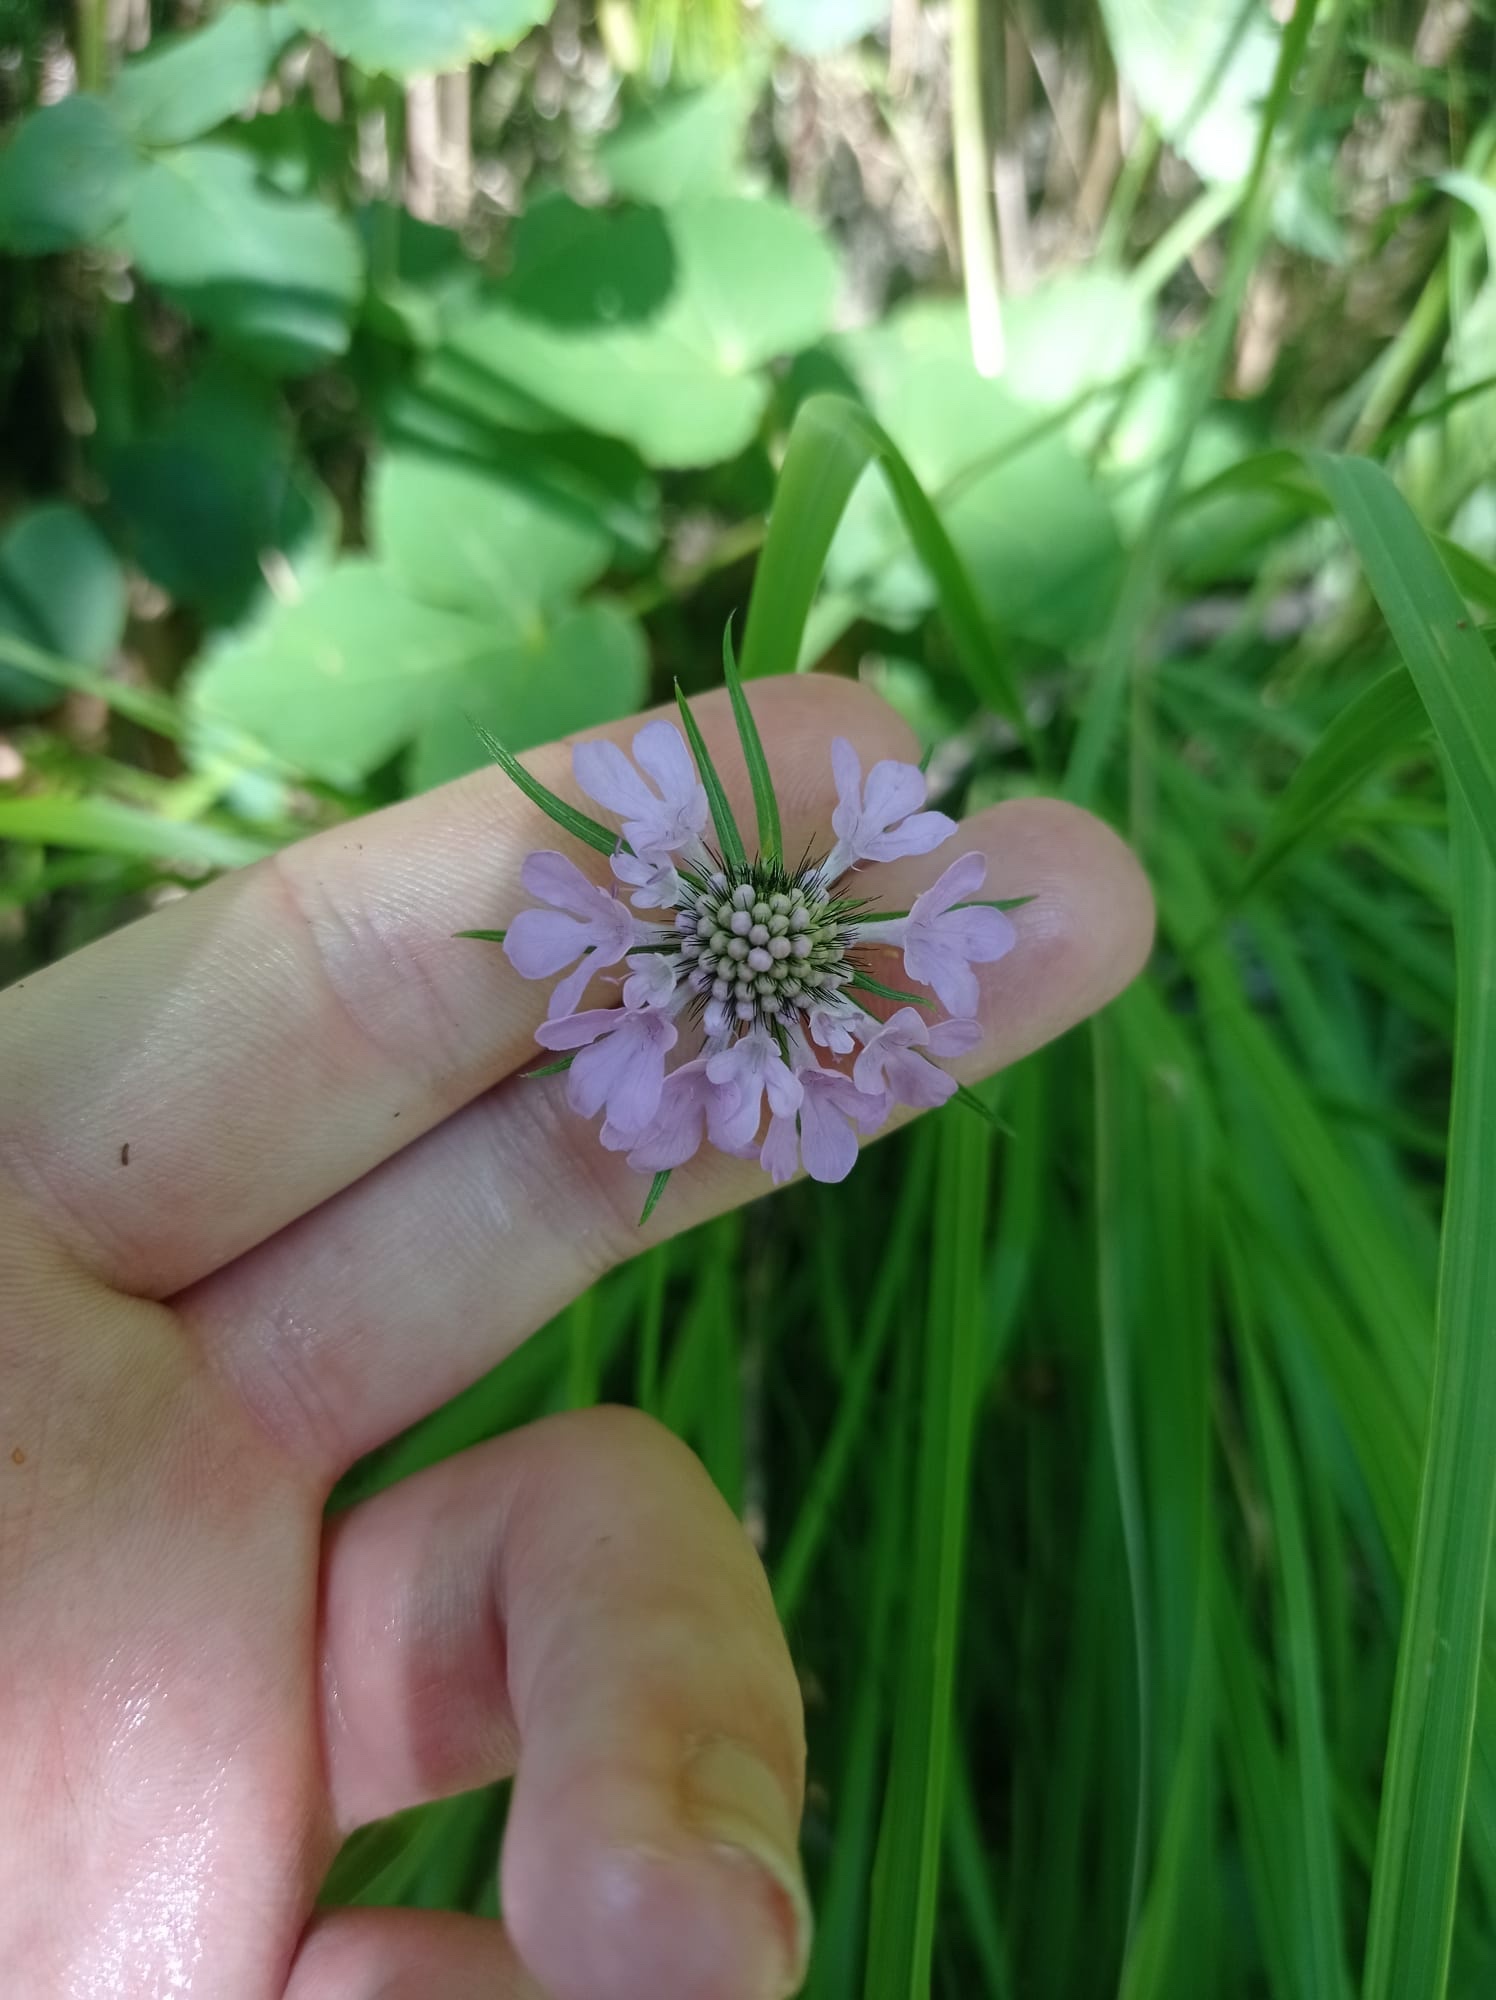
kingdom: Plantae
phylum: Tracheophyta
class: Magnoliopsida
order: Dipsacales
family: Caprifoliaceae
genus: Scabiosa
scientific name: Scabiosa lucida
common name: Shining scabious
